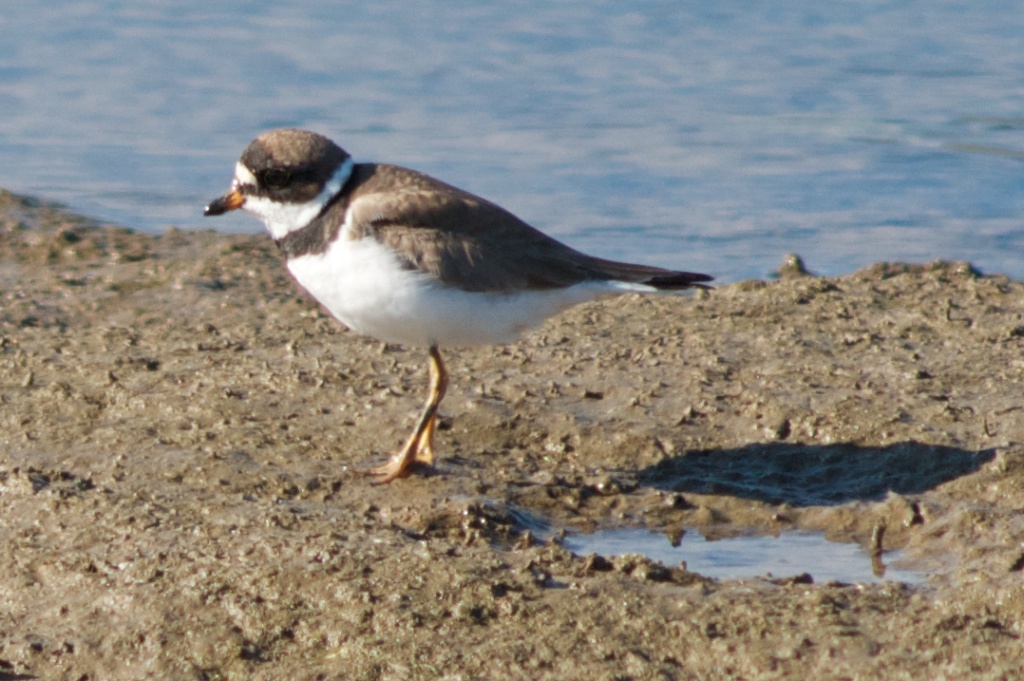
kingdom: Animalia
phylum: Chordata
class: Aves
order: Charadriiformes
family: Charadriidae
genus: Charadrius
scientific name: Charadrius semipalmatus
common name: Semipalmated plover
